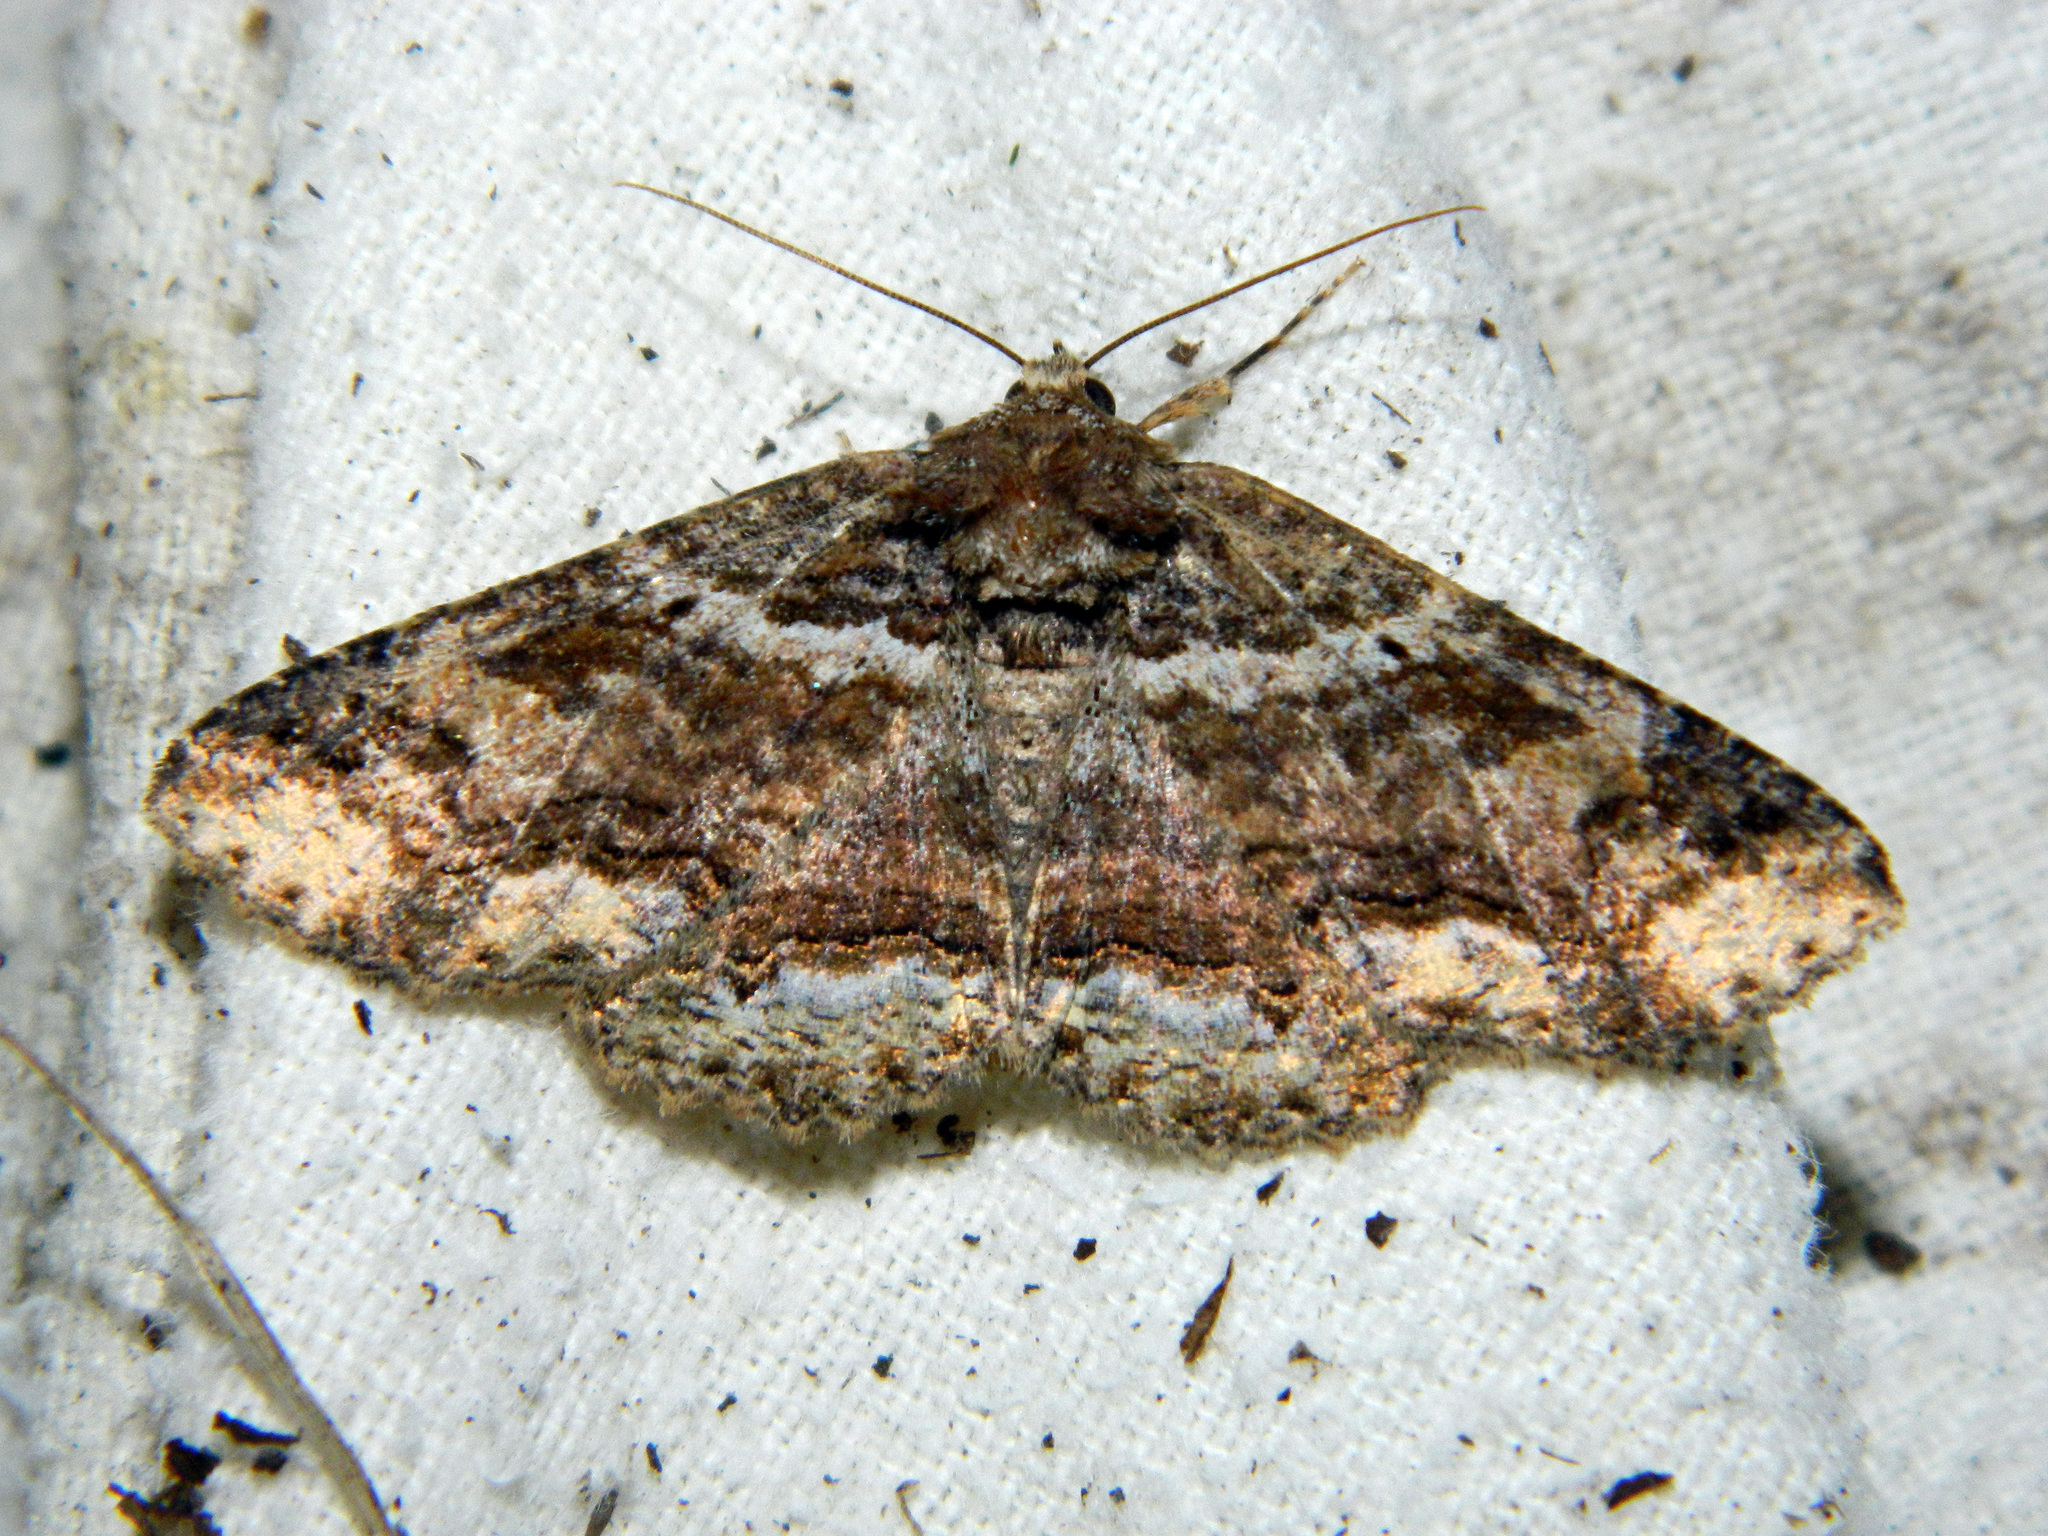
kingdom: Animalia
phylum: Arthropoda
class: Insecta
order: Lepidoptera
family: Erebidae
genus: Zale
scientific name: Zale minerea
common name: Colorful zale moth
